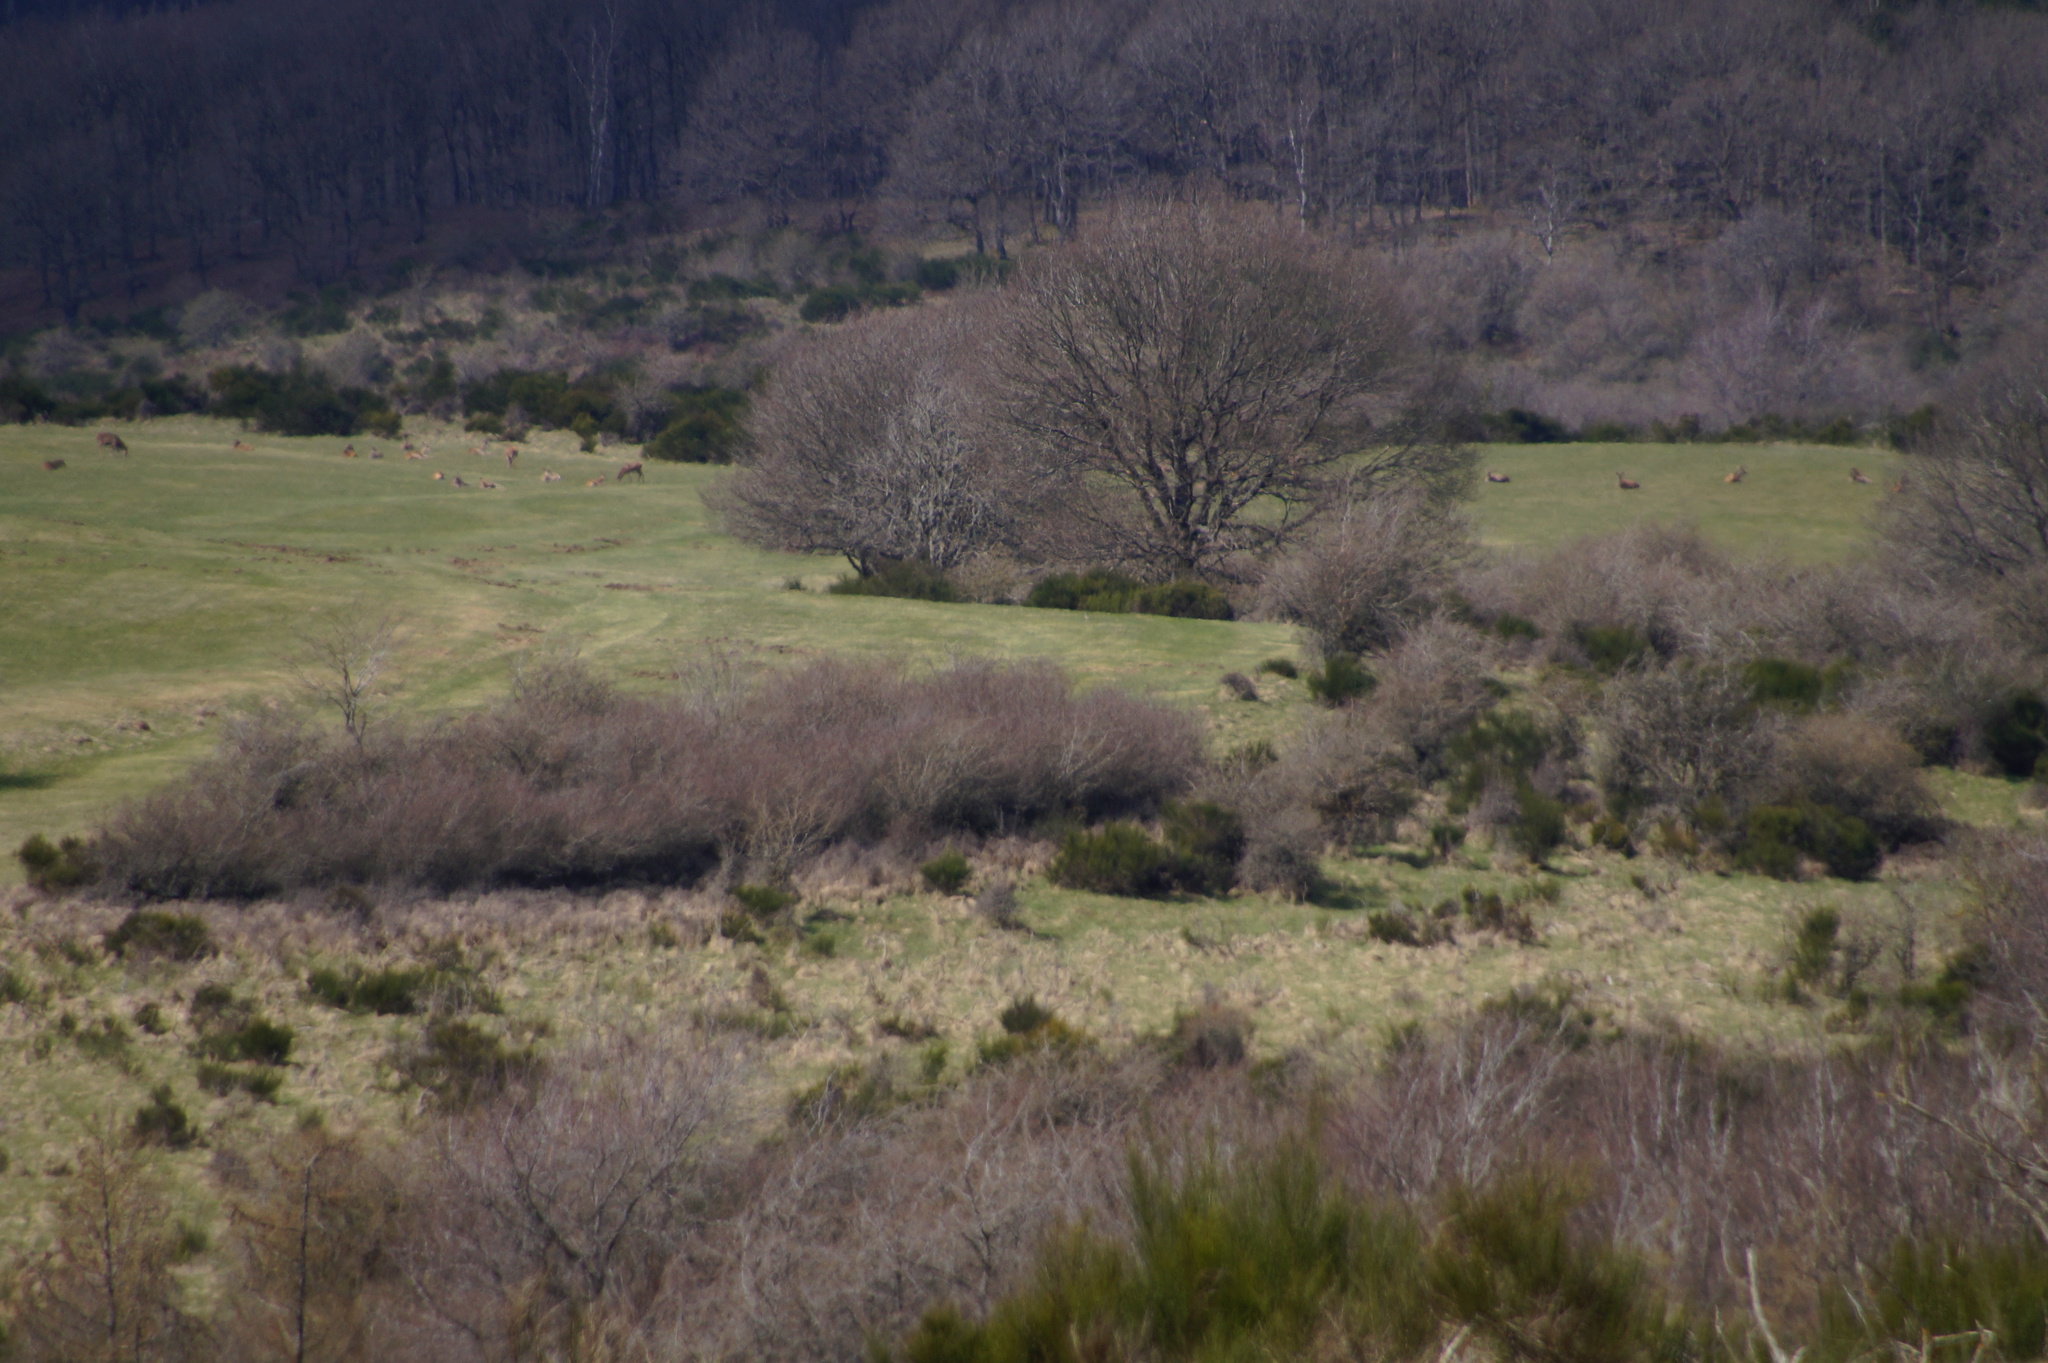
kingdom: Animalia
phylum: Chordata
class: Mammalia
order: Artiodactyla
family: Cervidae
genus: Cervus
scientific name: Cervus elaphus
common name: Red deer
